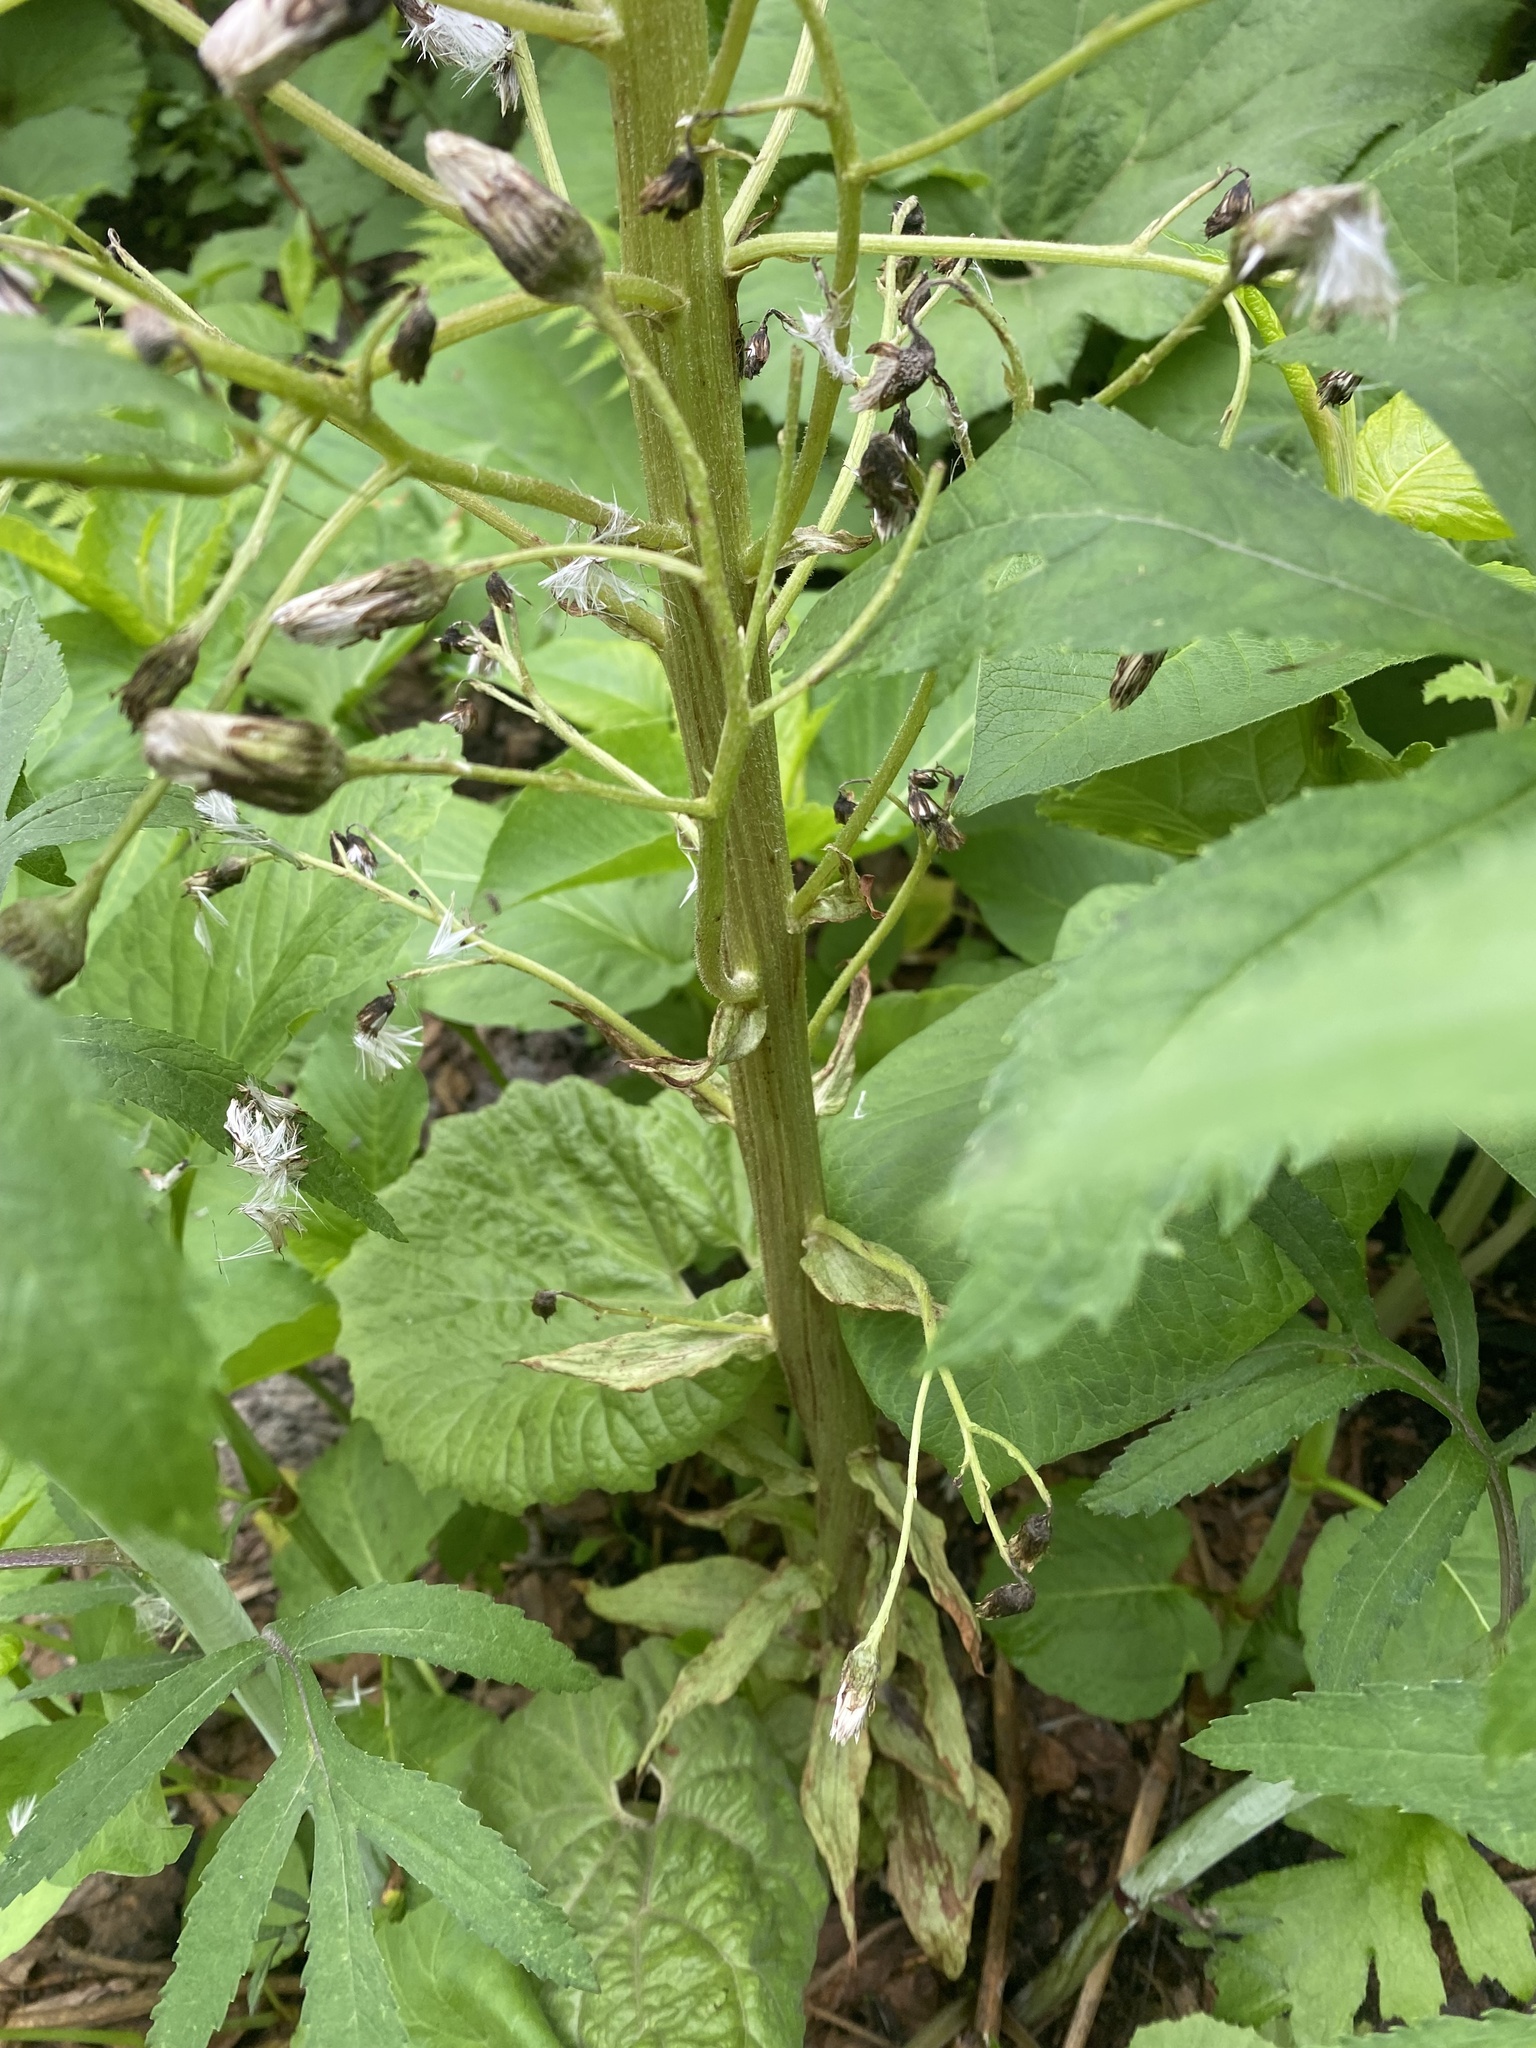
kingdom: Plantae
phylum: Tracheophyta
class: Magnoliopsida
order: Asterales
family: Asteraceae
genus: Petasites
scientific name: Petasites japonicus
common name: Giant butterbur
